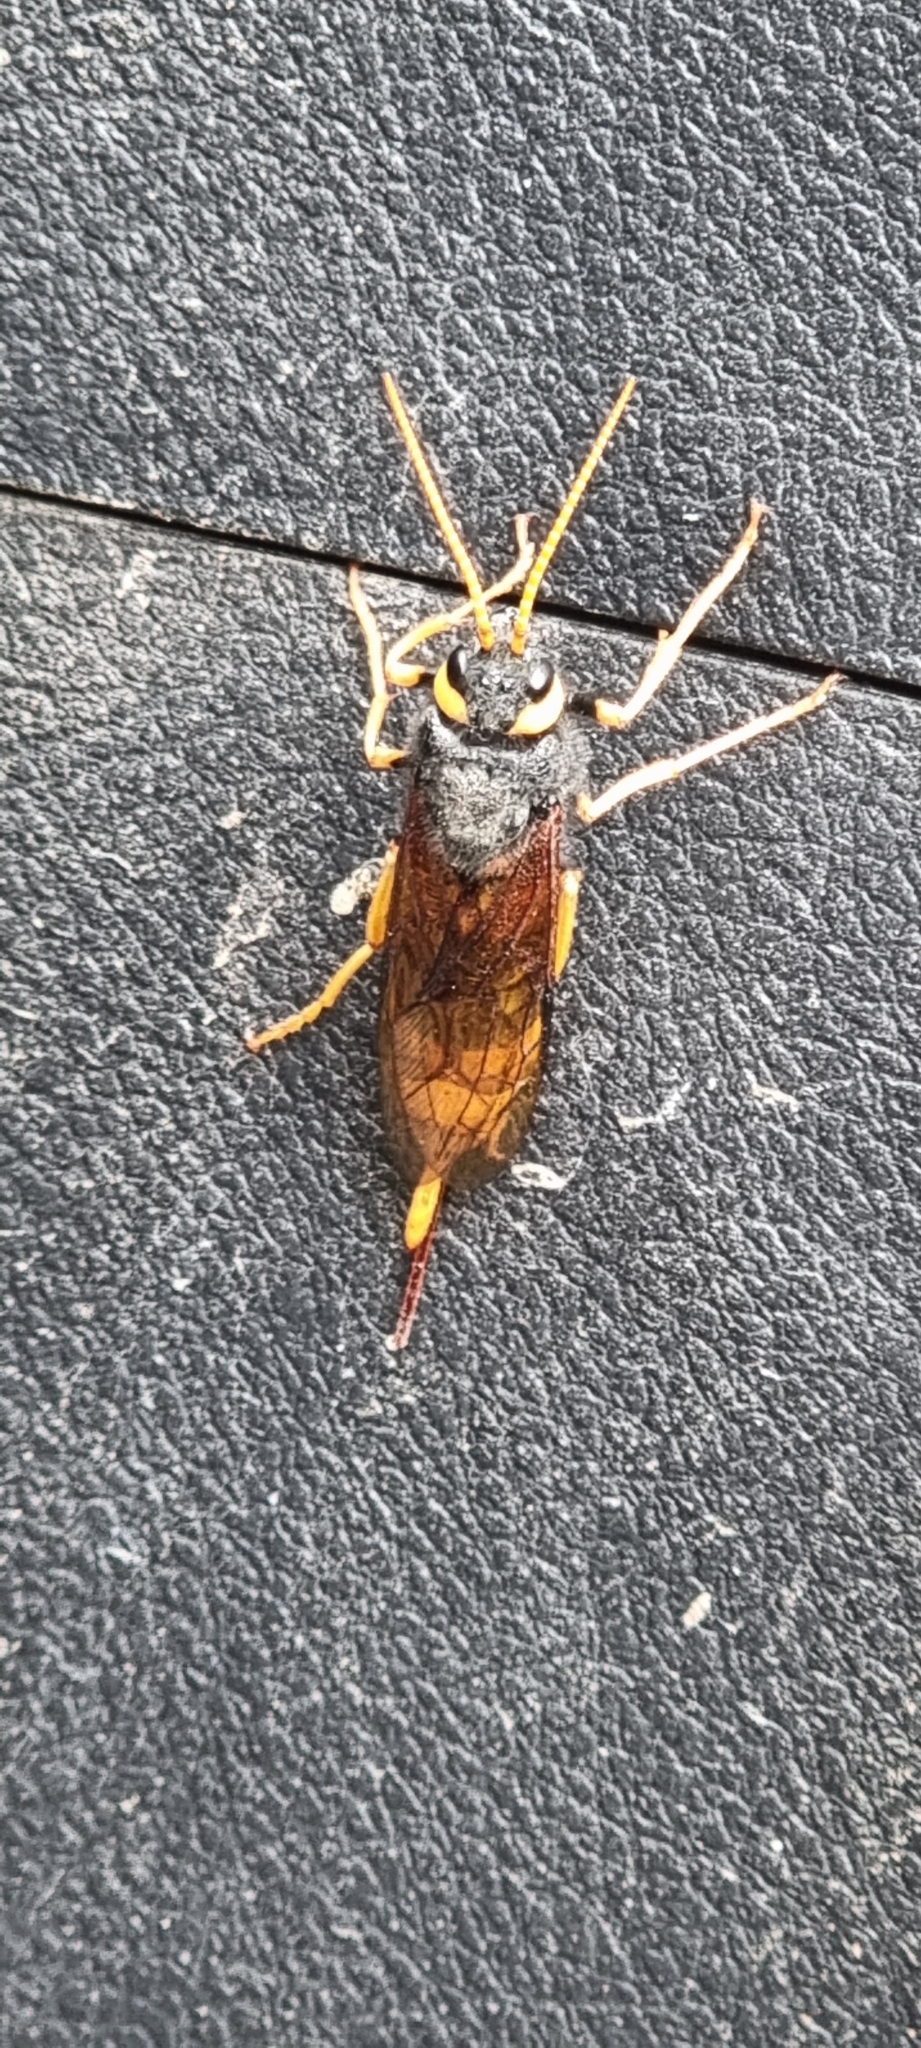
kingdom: Animalia
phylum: Arthropoda
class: Insecta
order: Hymenoptera
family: Siricidae
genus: Urocerus
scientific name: Urocerus gigas
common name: Giant woodwasp
